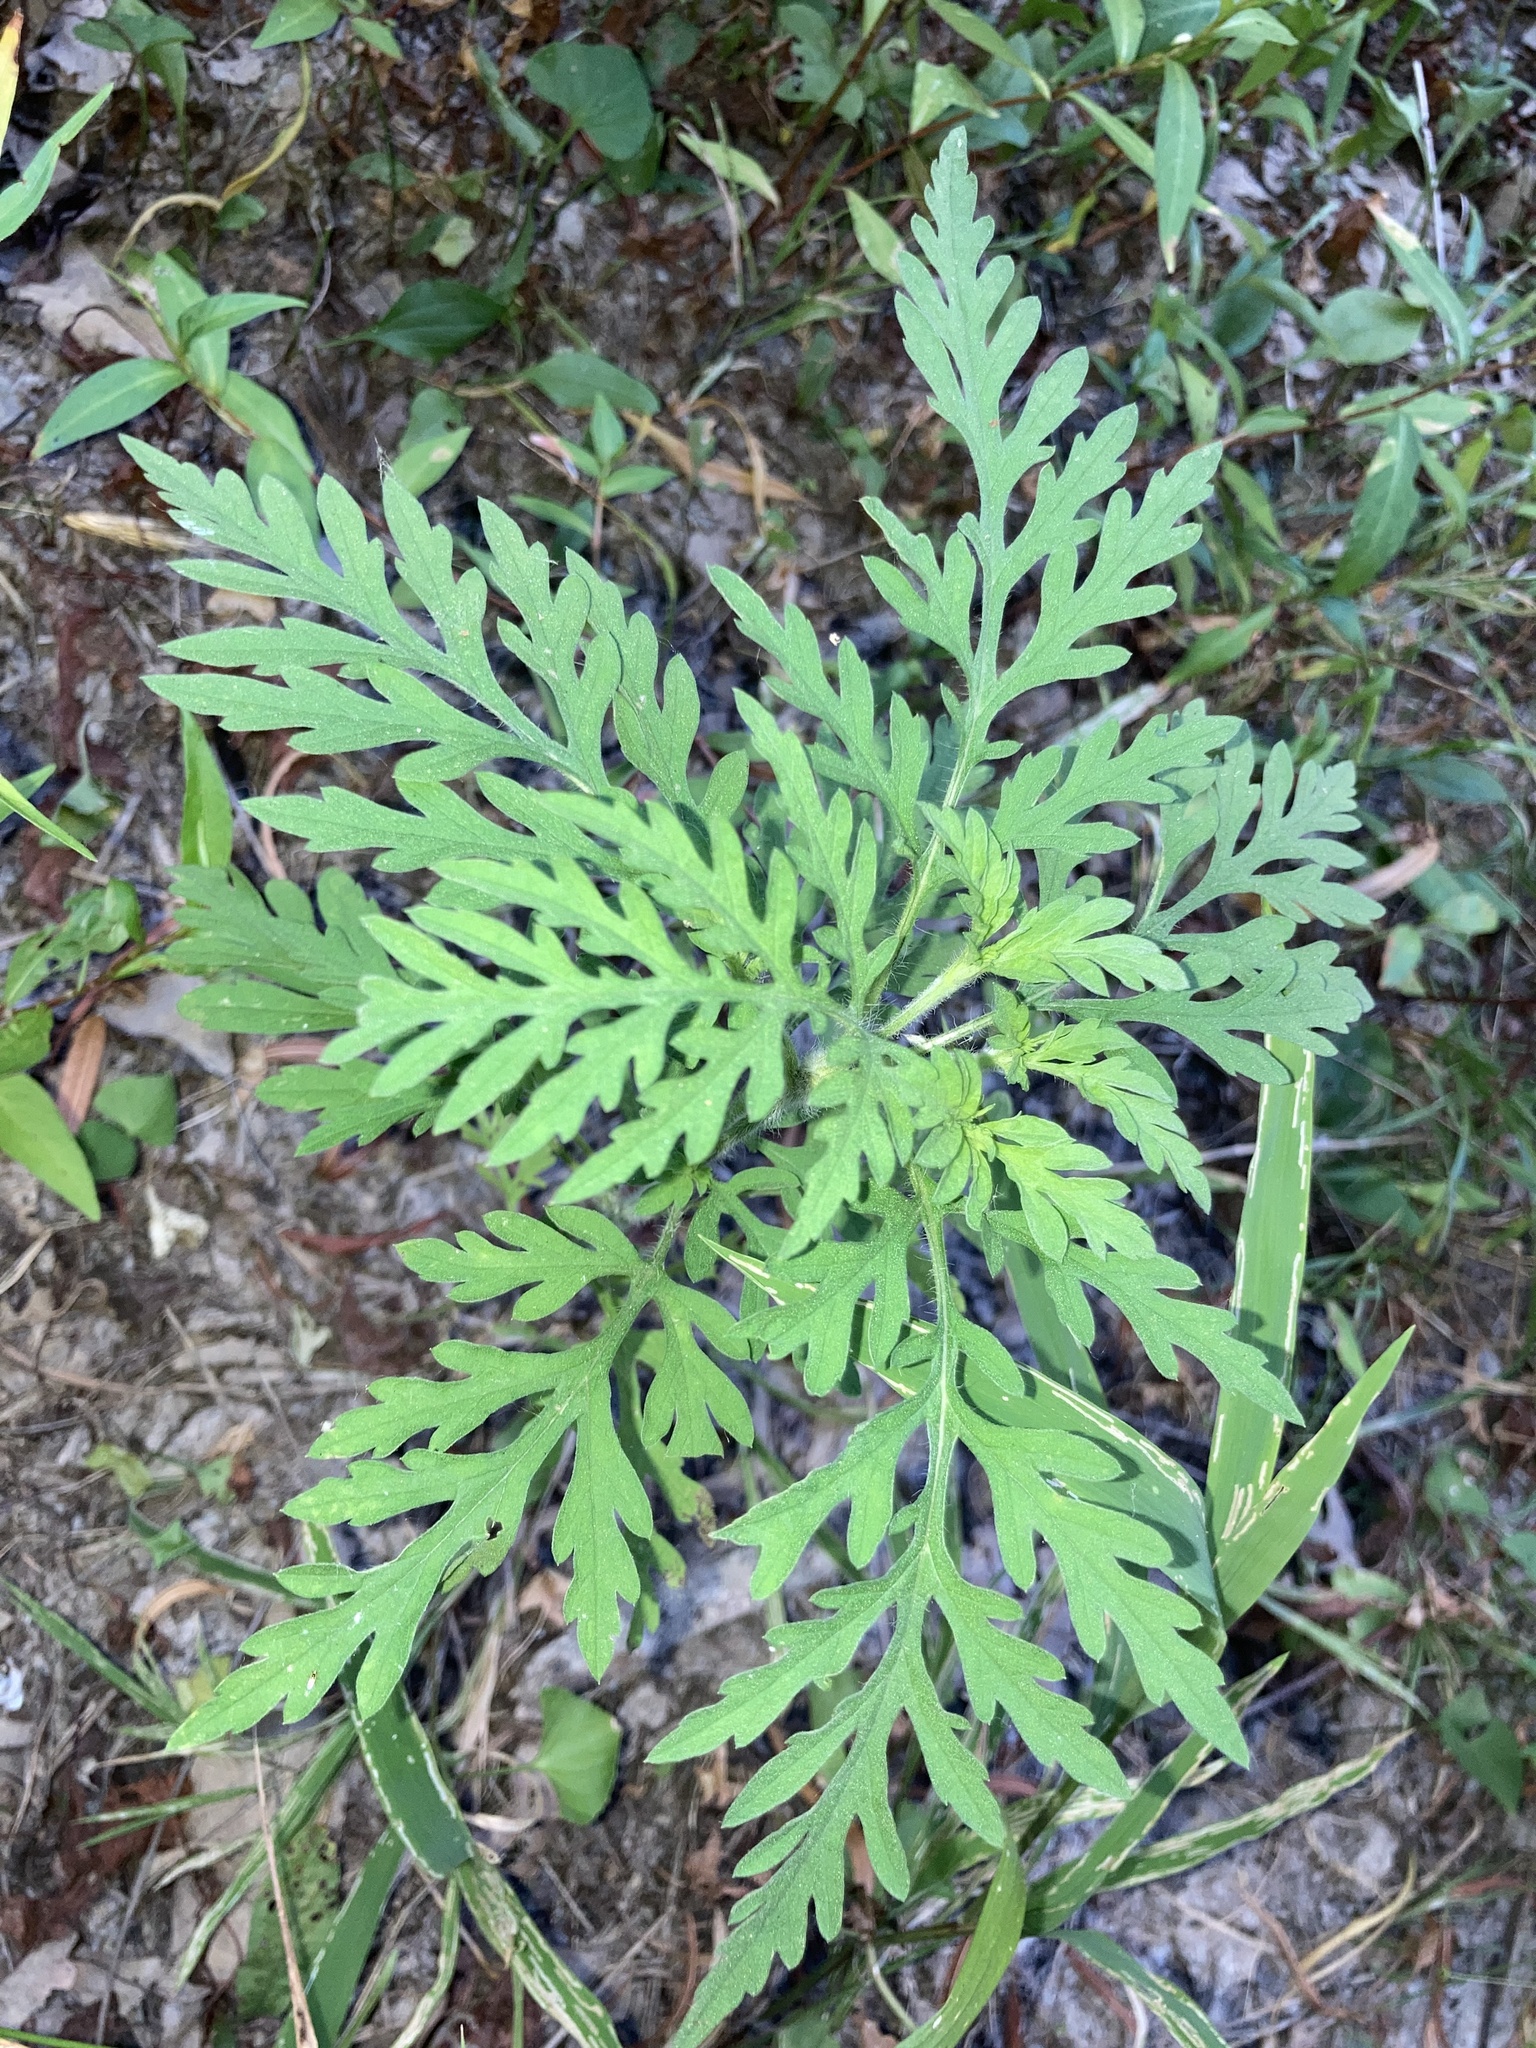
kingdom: Plantae
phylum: Tracheophyta
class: Magnoliopsida
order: Asterales
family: Asteraceae
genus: Ambrosia
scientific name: Ambrosia artemisiifolia
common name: Annual ragweed
